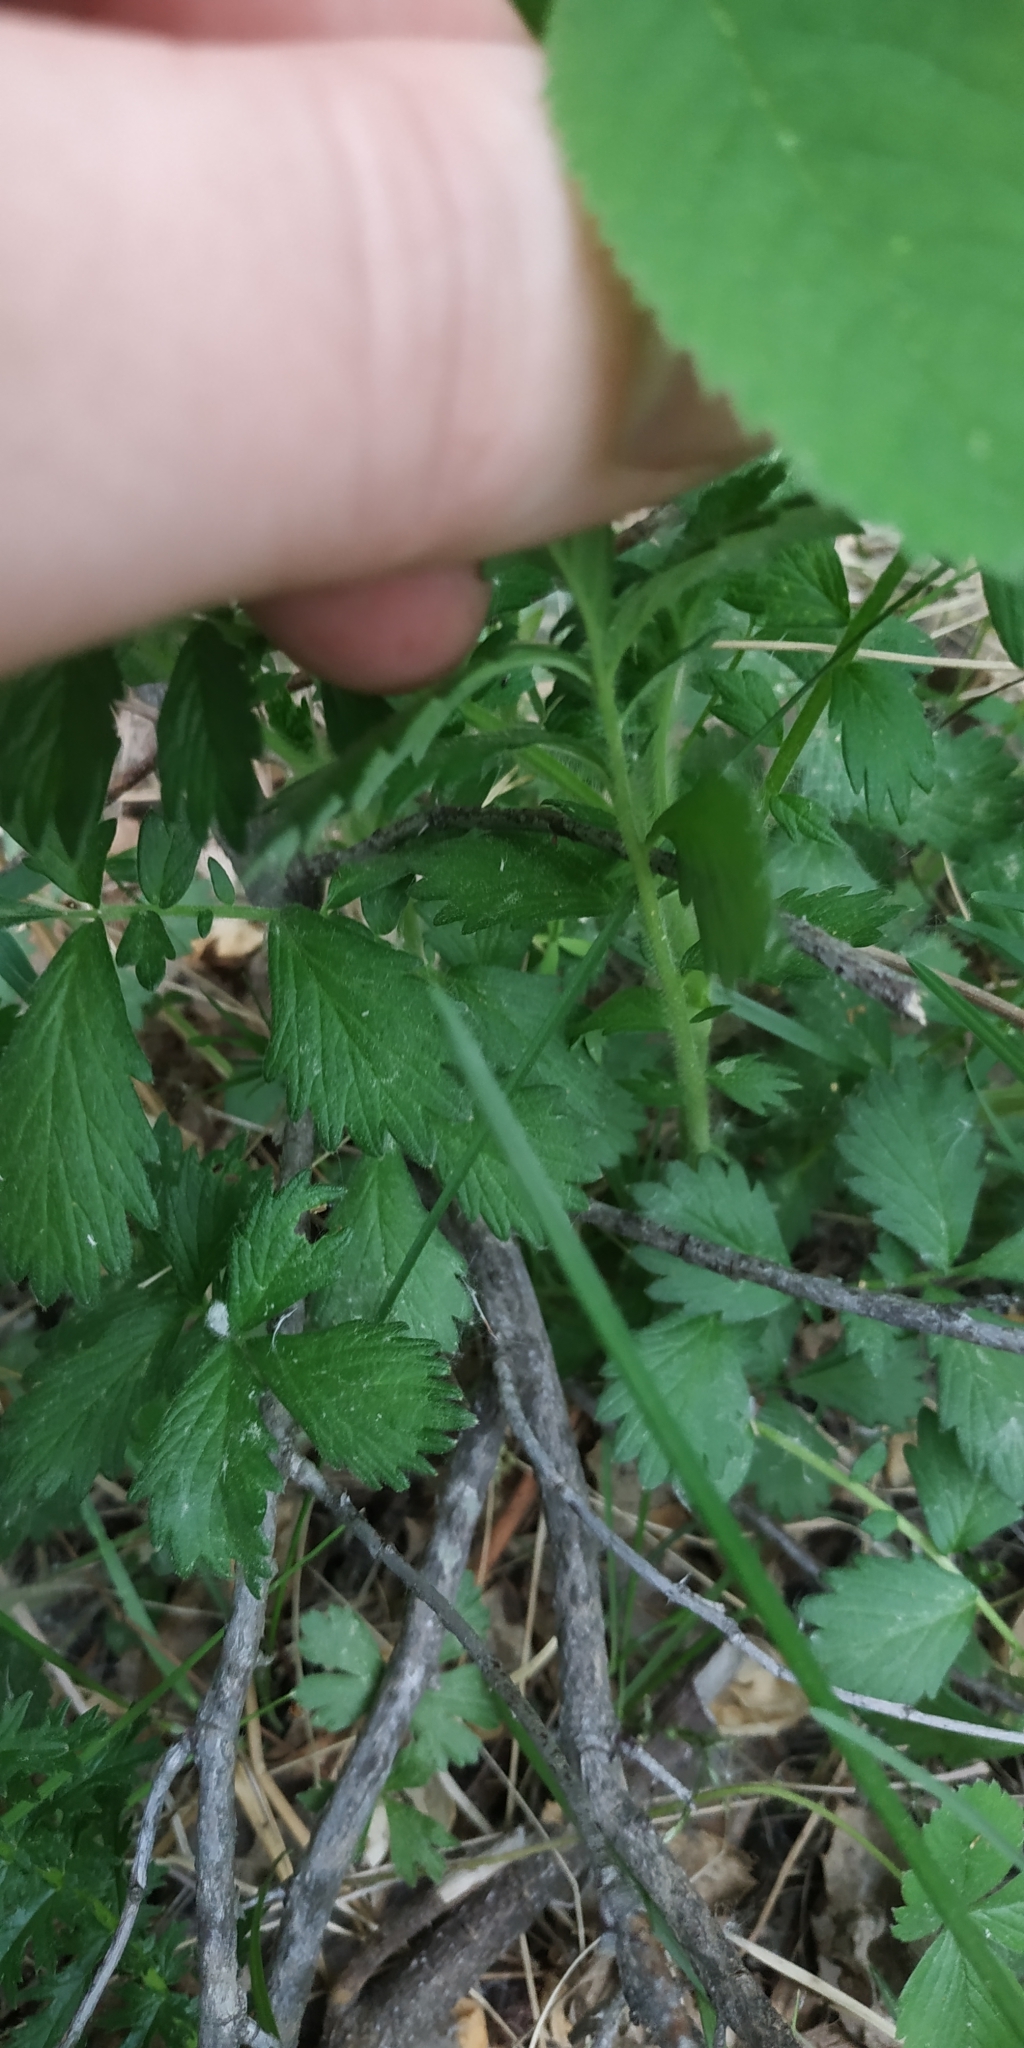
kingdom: Plantae
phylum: Tracheophyta
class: Magnoliopsida
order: Rosales
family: Rosaceae
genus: Agrimonia
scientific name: Agrimonia pilosa
